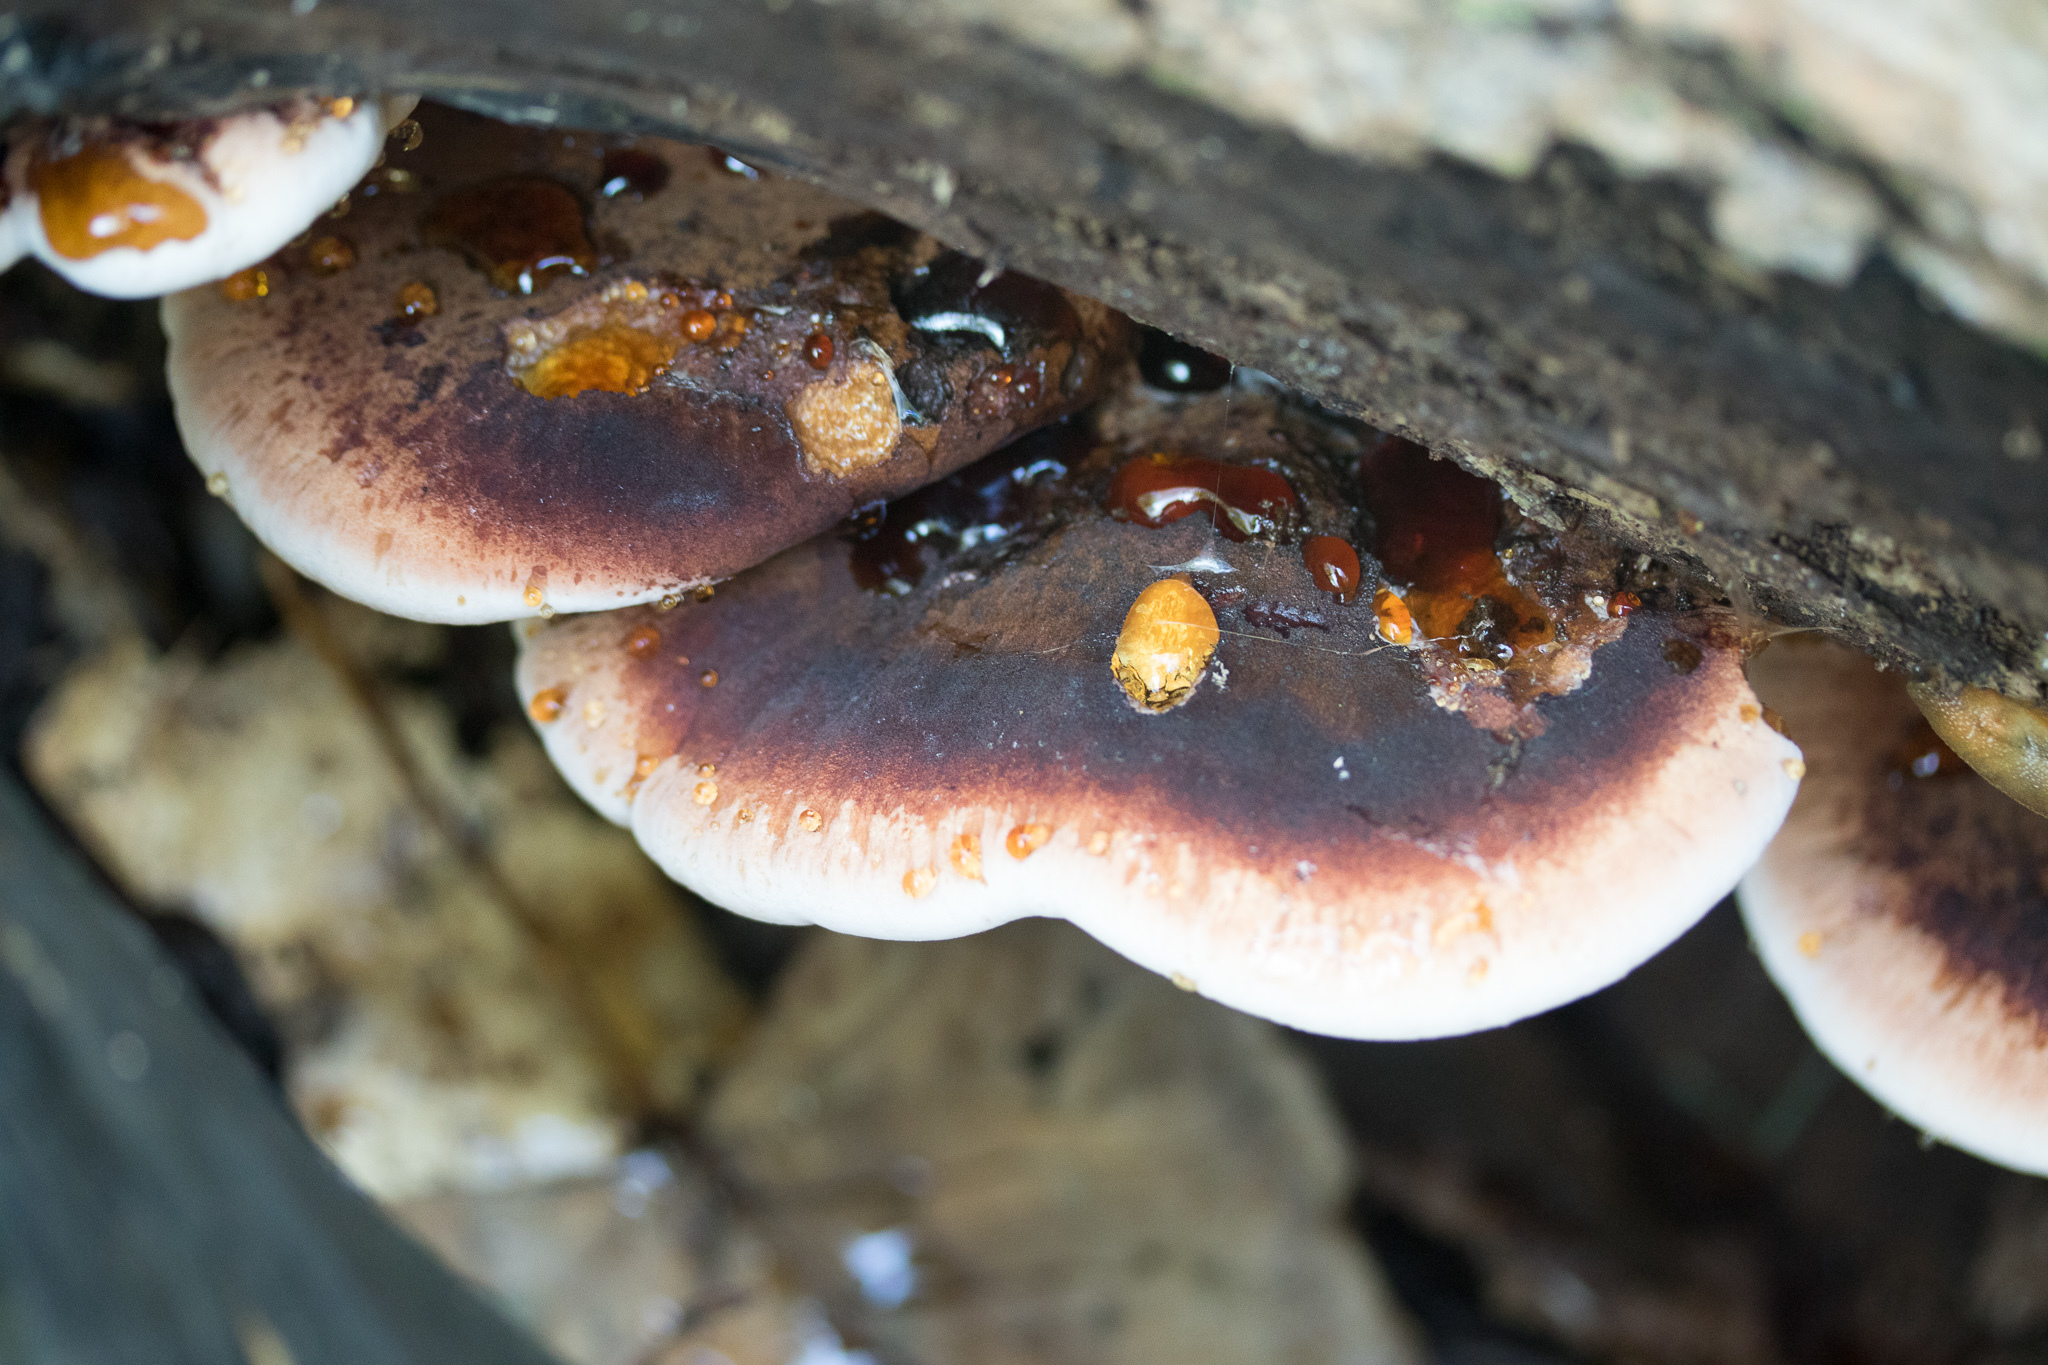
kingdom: Fungi
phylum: Basidiomycota
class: Agaricomycetes
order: Polyporales
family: Ischnodermataceae
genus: Ischnoderma
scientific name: Ischnoderma resinosum
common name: Resinous polypore
